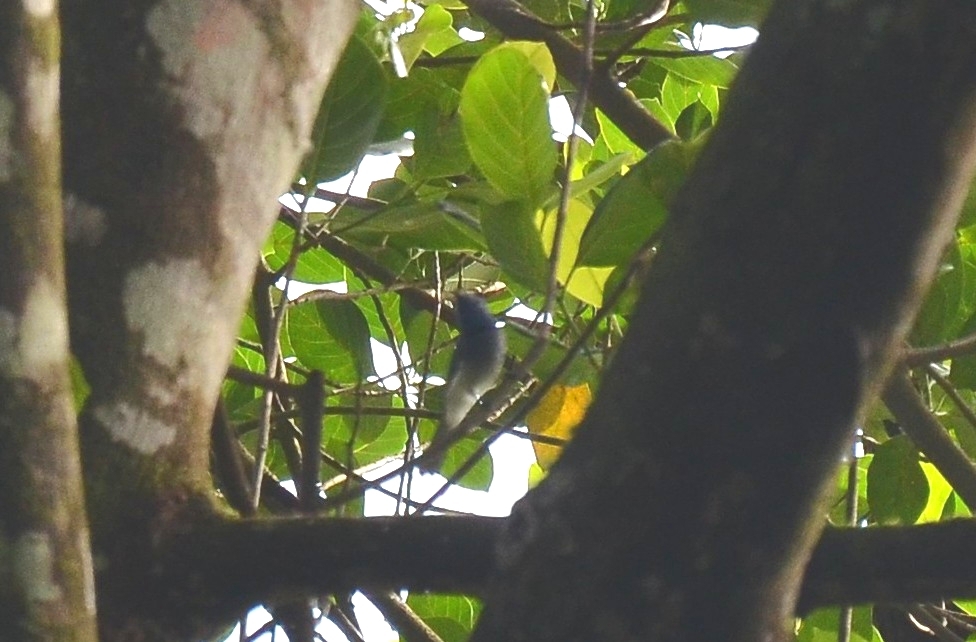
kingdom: Animalia
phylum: Chordata
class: Aves
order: Passeriformes
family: Monarchidae
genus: Hypothymis
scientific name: Hypothymis azurea
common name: Black-naped monarch
